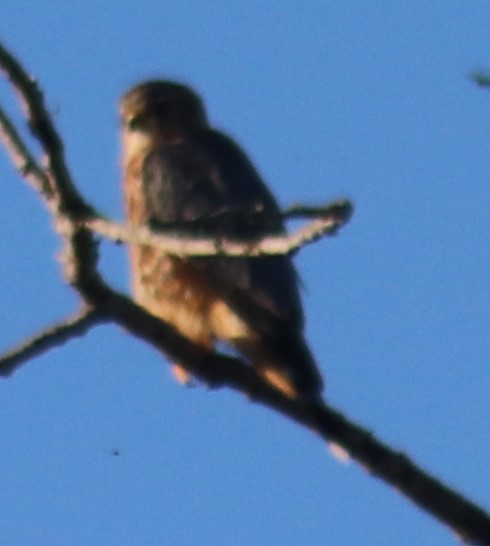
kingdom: Animalia
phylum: Chordata
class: Aves
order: Falconiformes
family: Falconidae
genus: Falco
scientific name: Falco columbarius
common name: Merlin
